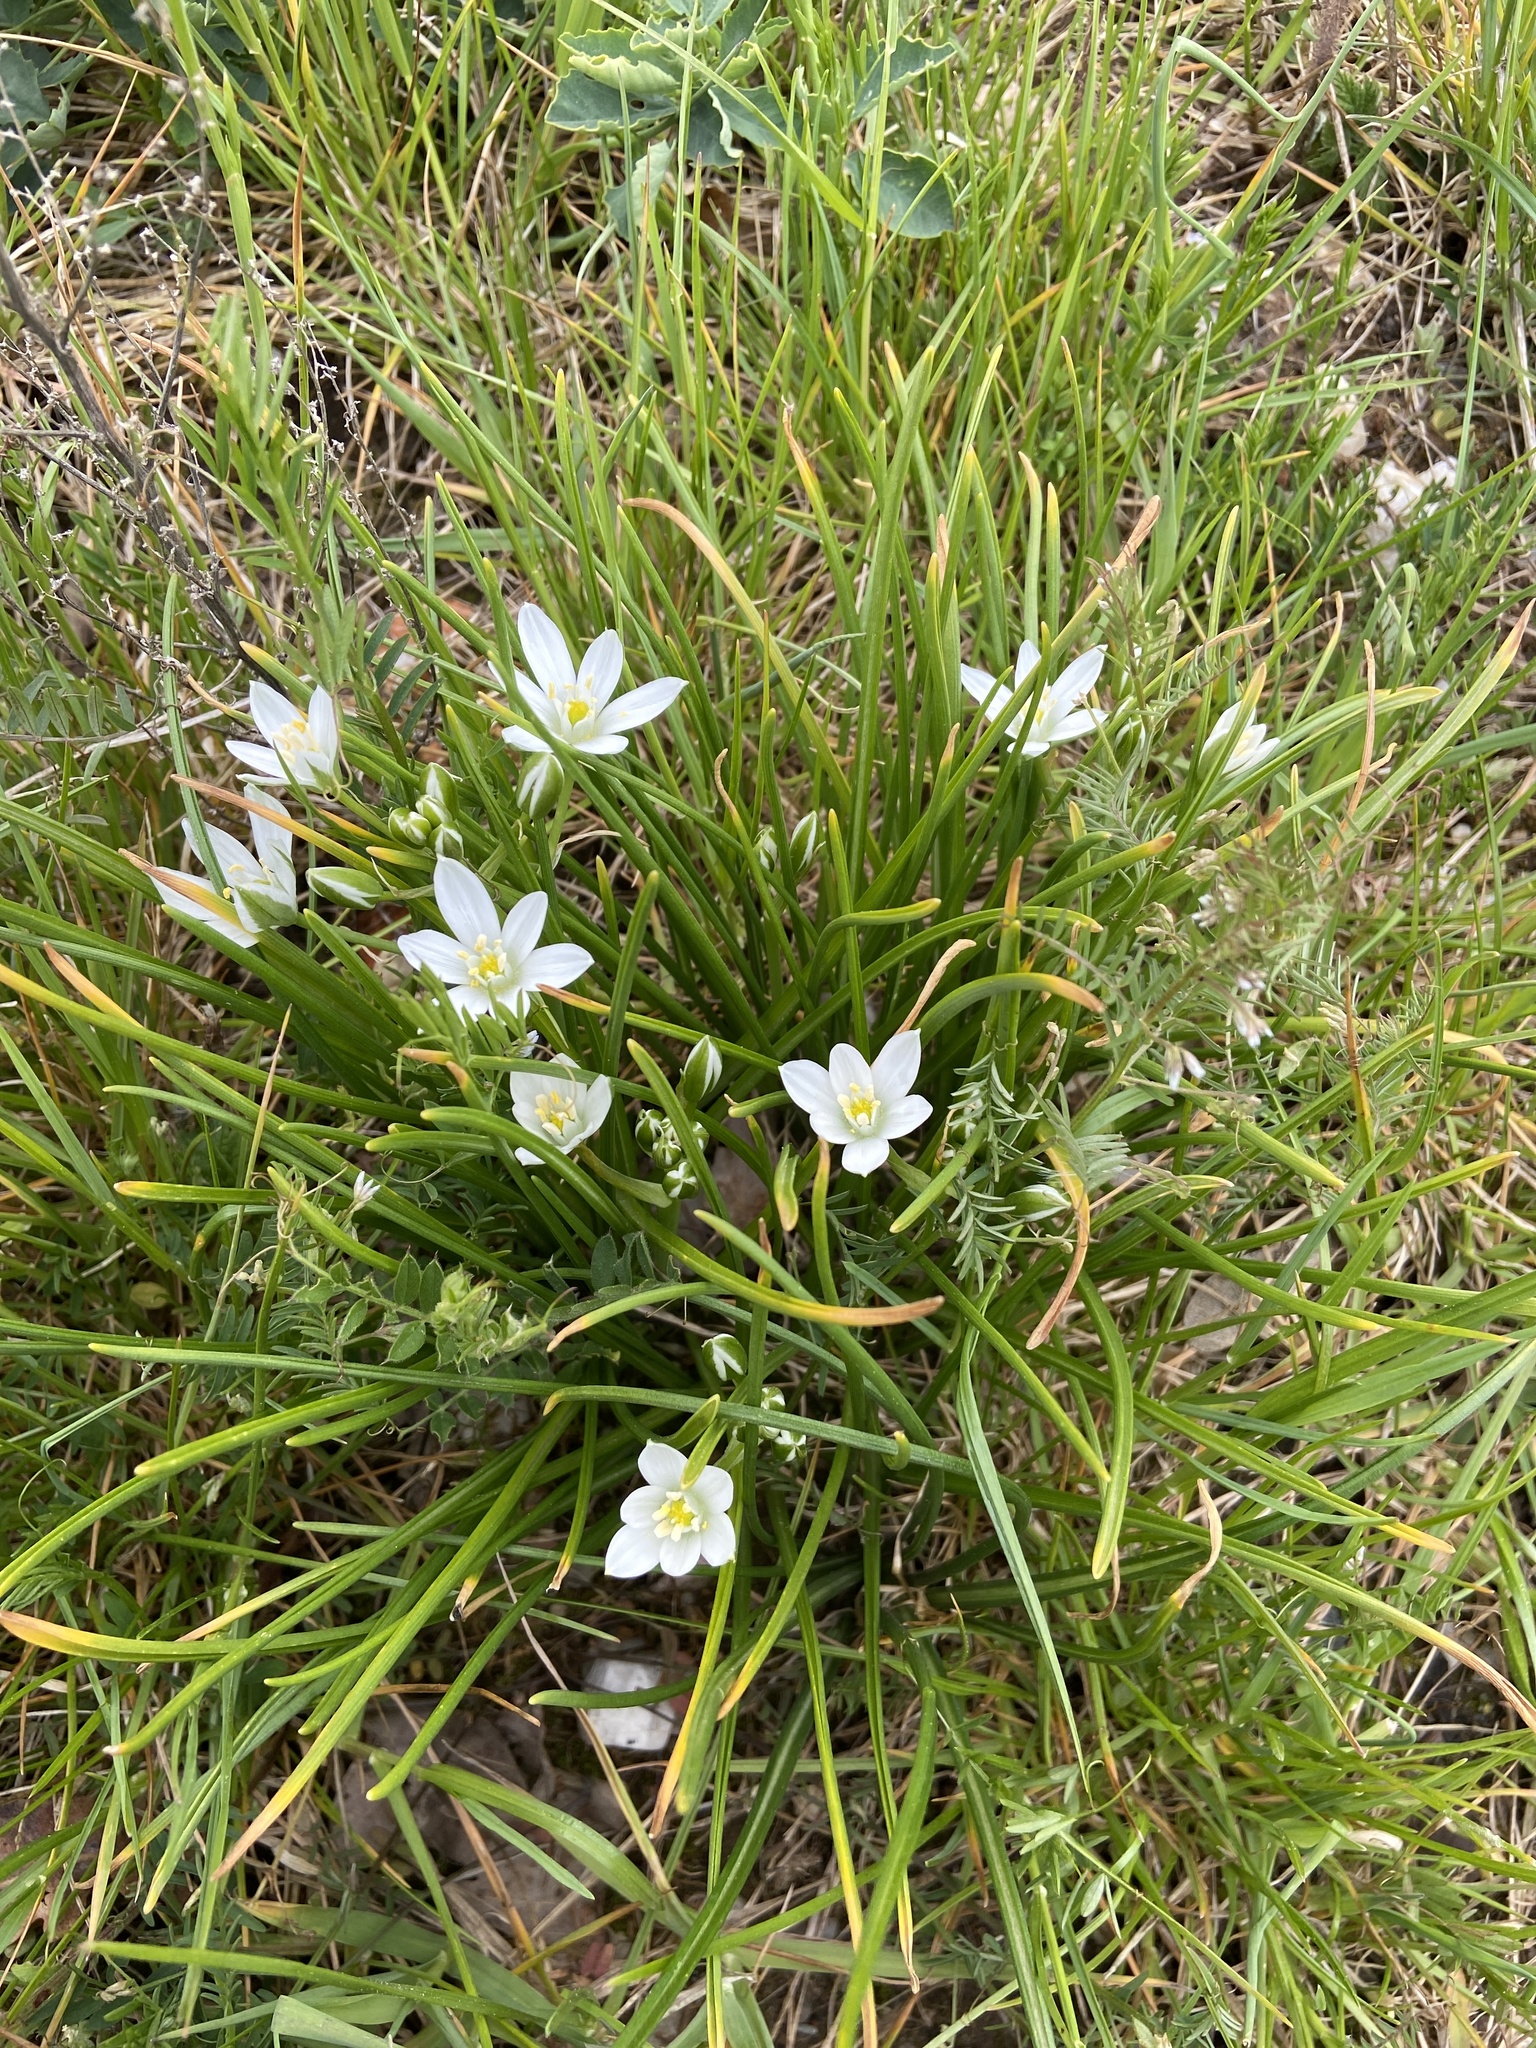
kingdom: Plantae
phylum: Tracheophyta
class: Liliopsida
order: Asparagales
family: Asparagaceae
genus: Ornithogalum
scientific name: Ornithogalum umbellatum
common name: Garden star-of-bethlehem
